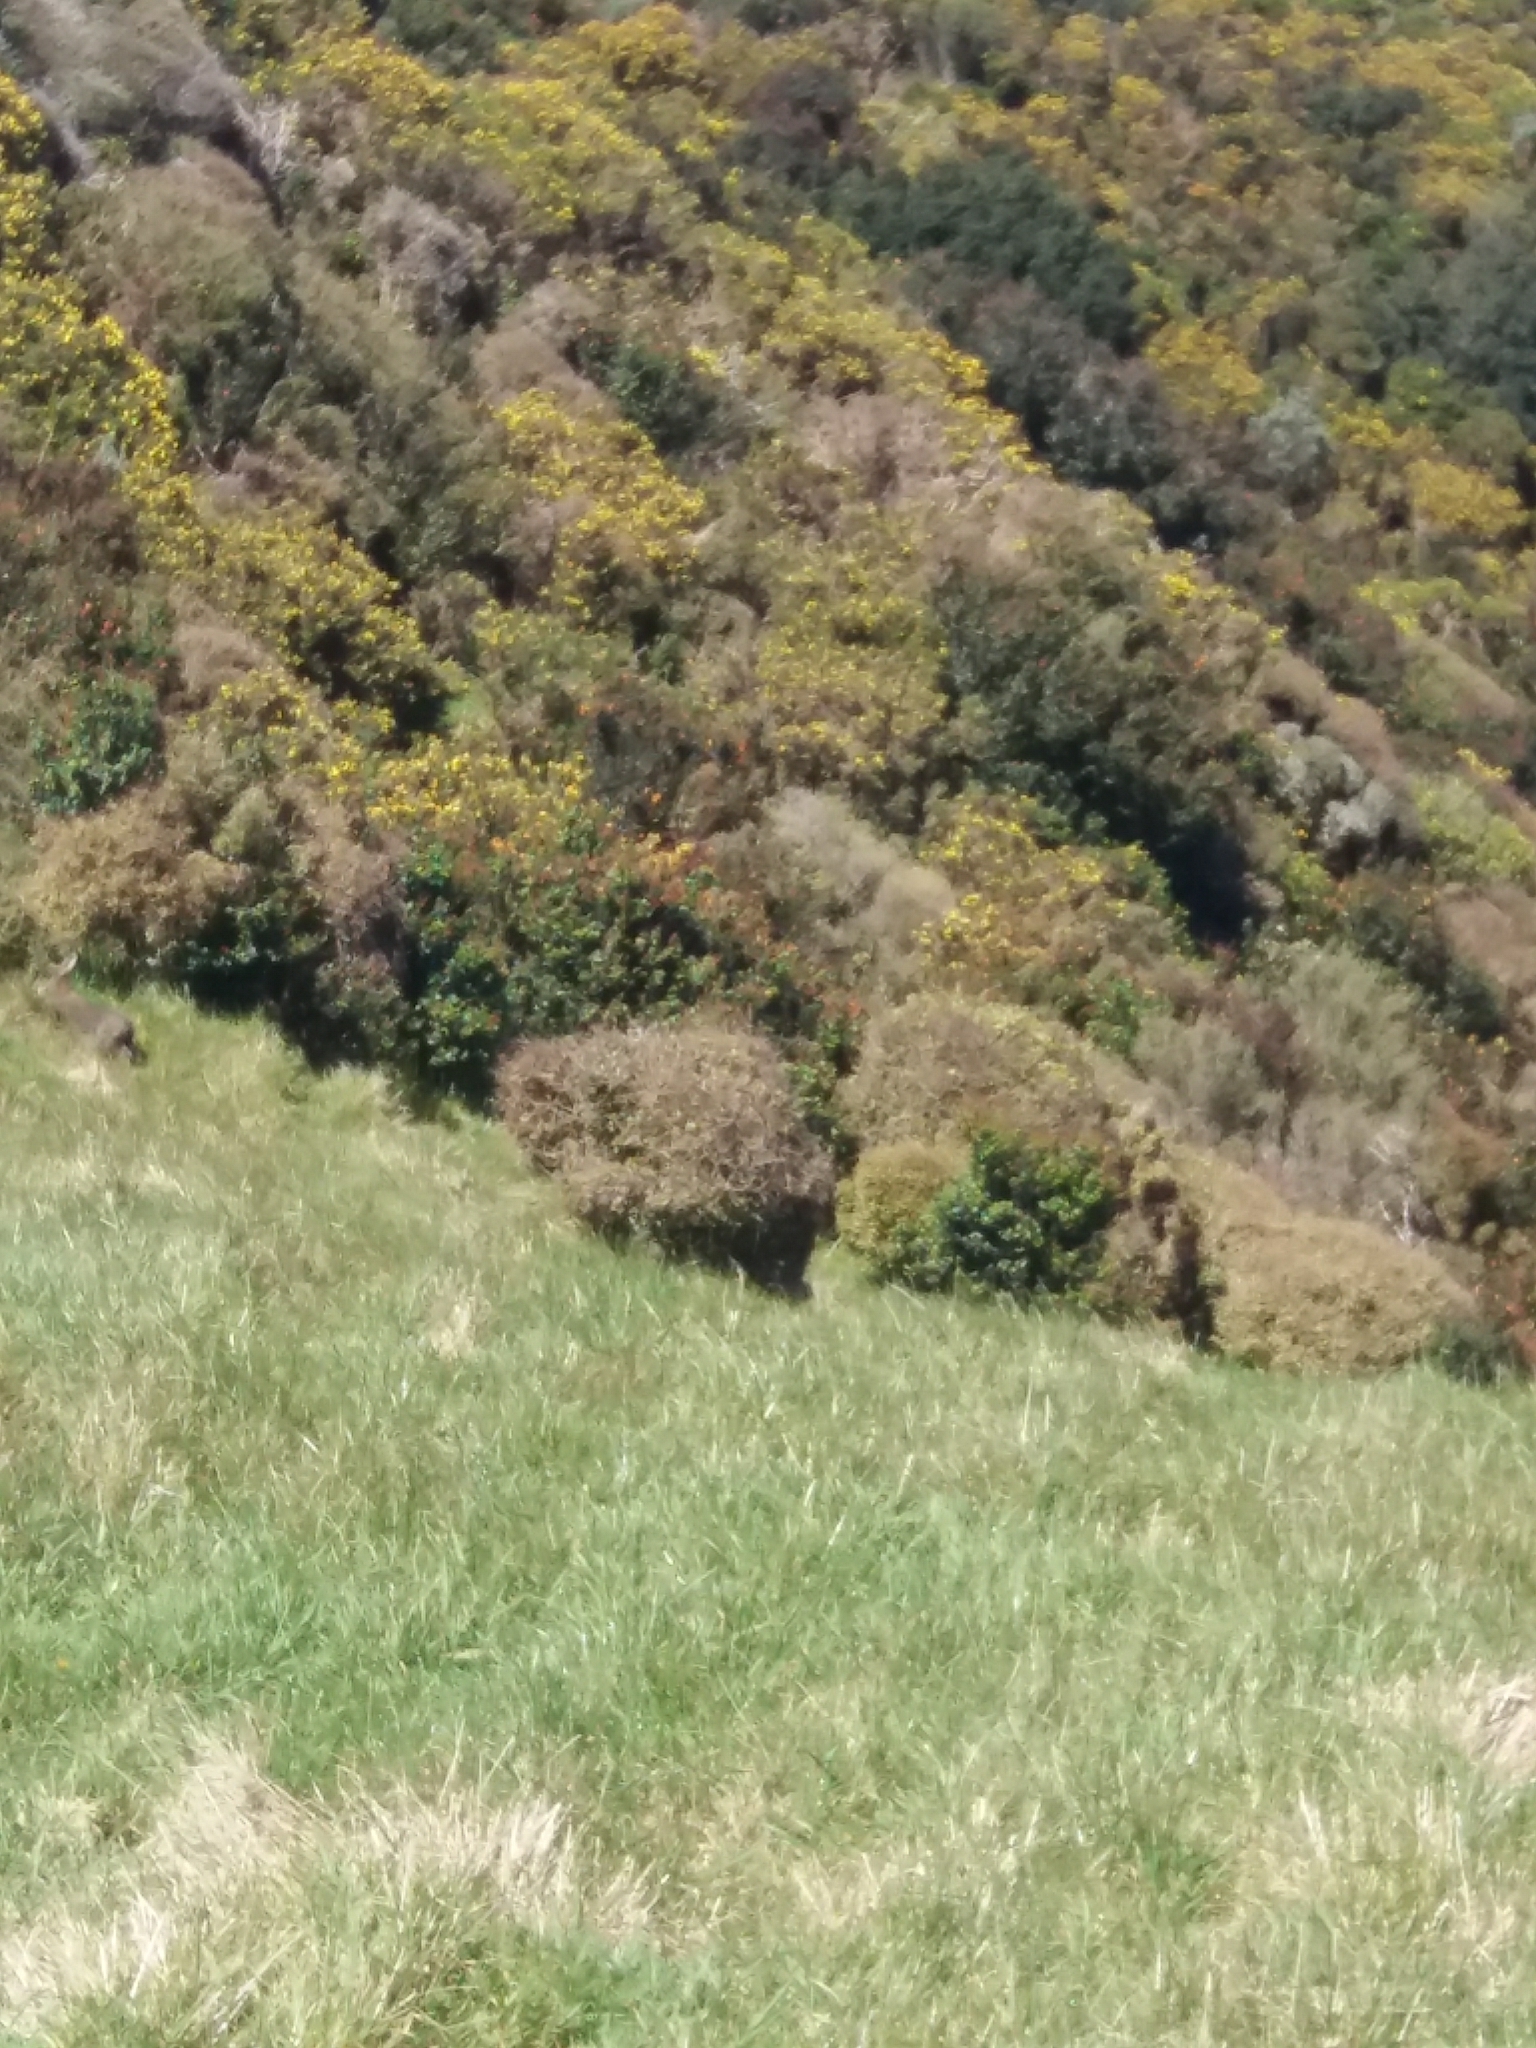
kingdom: Animalia
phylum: Chordata
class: Mammalia
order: Lagomorpha
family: Leporidae
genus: Lepus
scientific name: Lepus europaeus
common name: European hare
